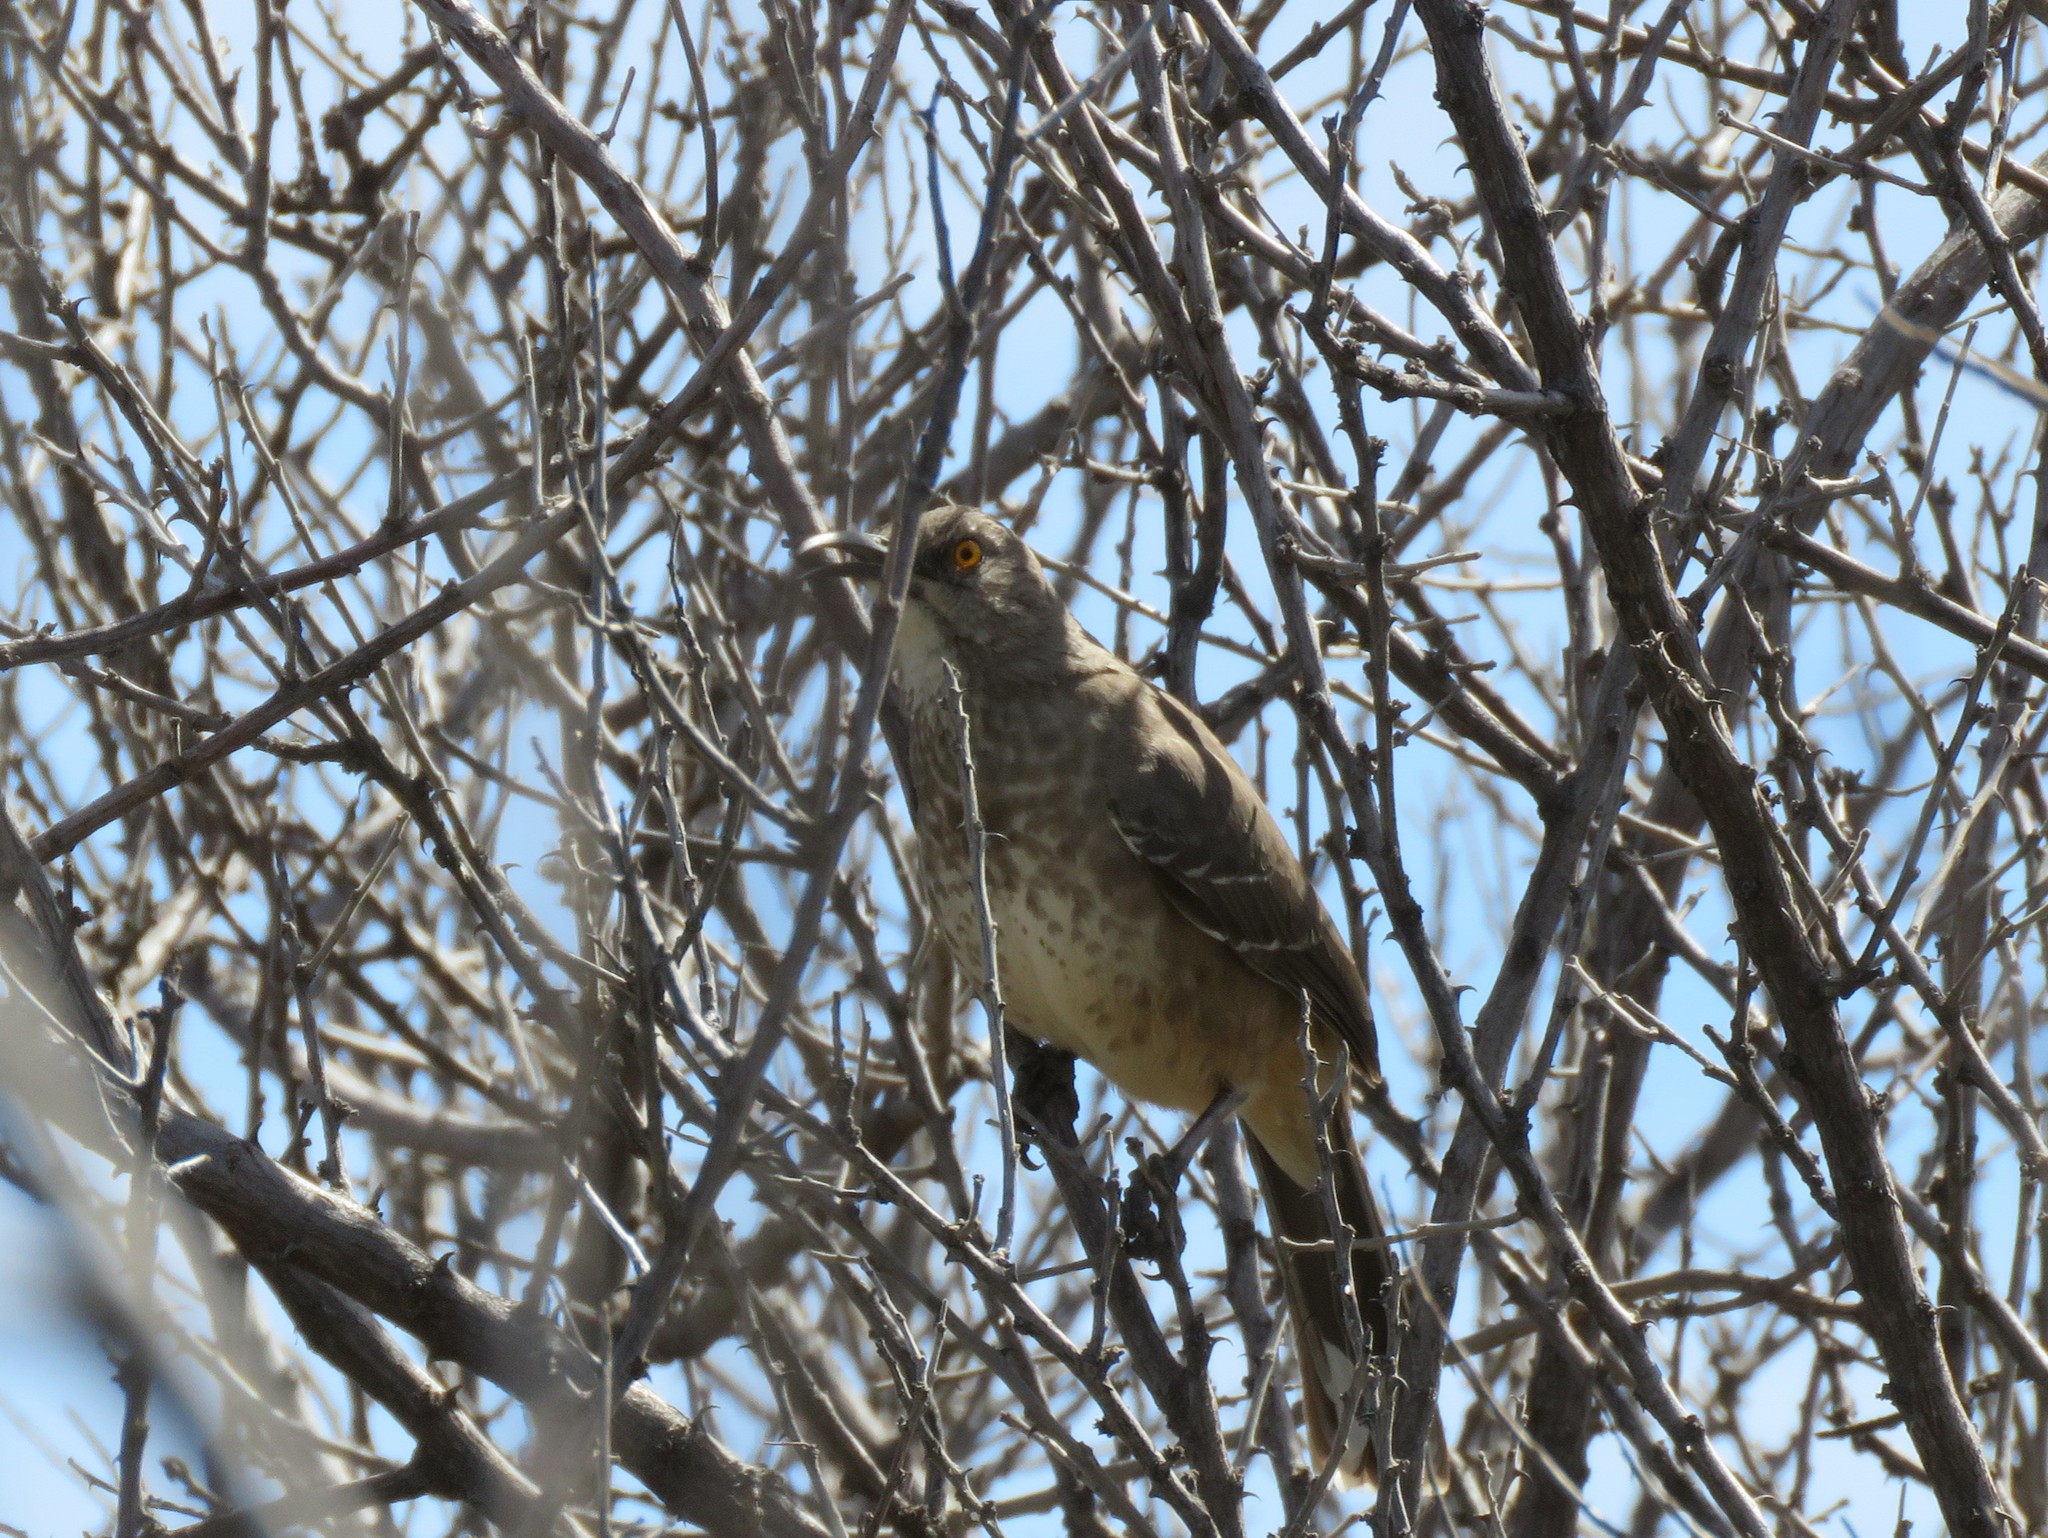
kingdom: Animalia
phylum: Chordata
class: Aves
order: Passeriformes
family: Mimidae
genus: Toxostoma
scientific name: Toxostoma curvirostre
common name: Curve-billed thrasher
